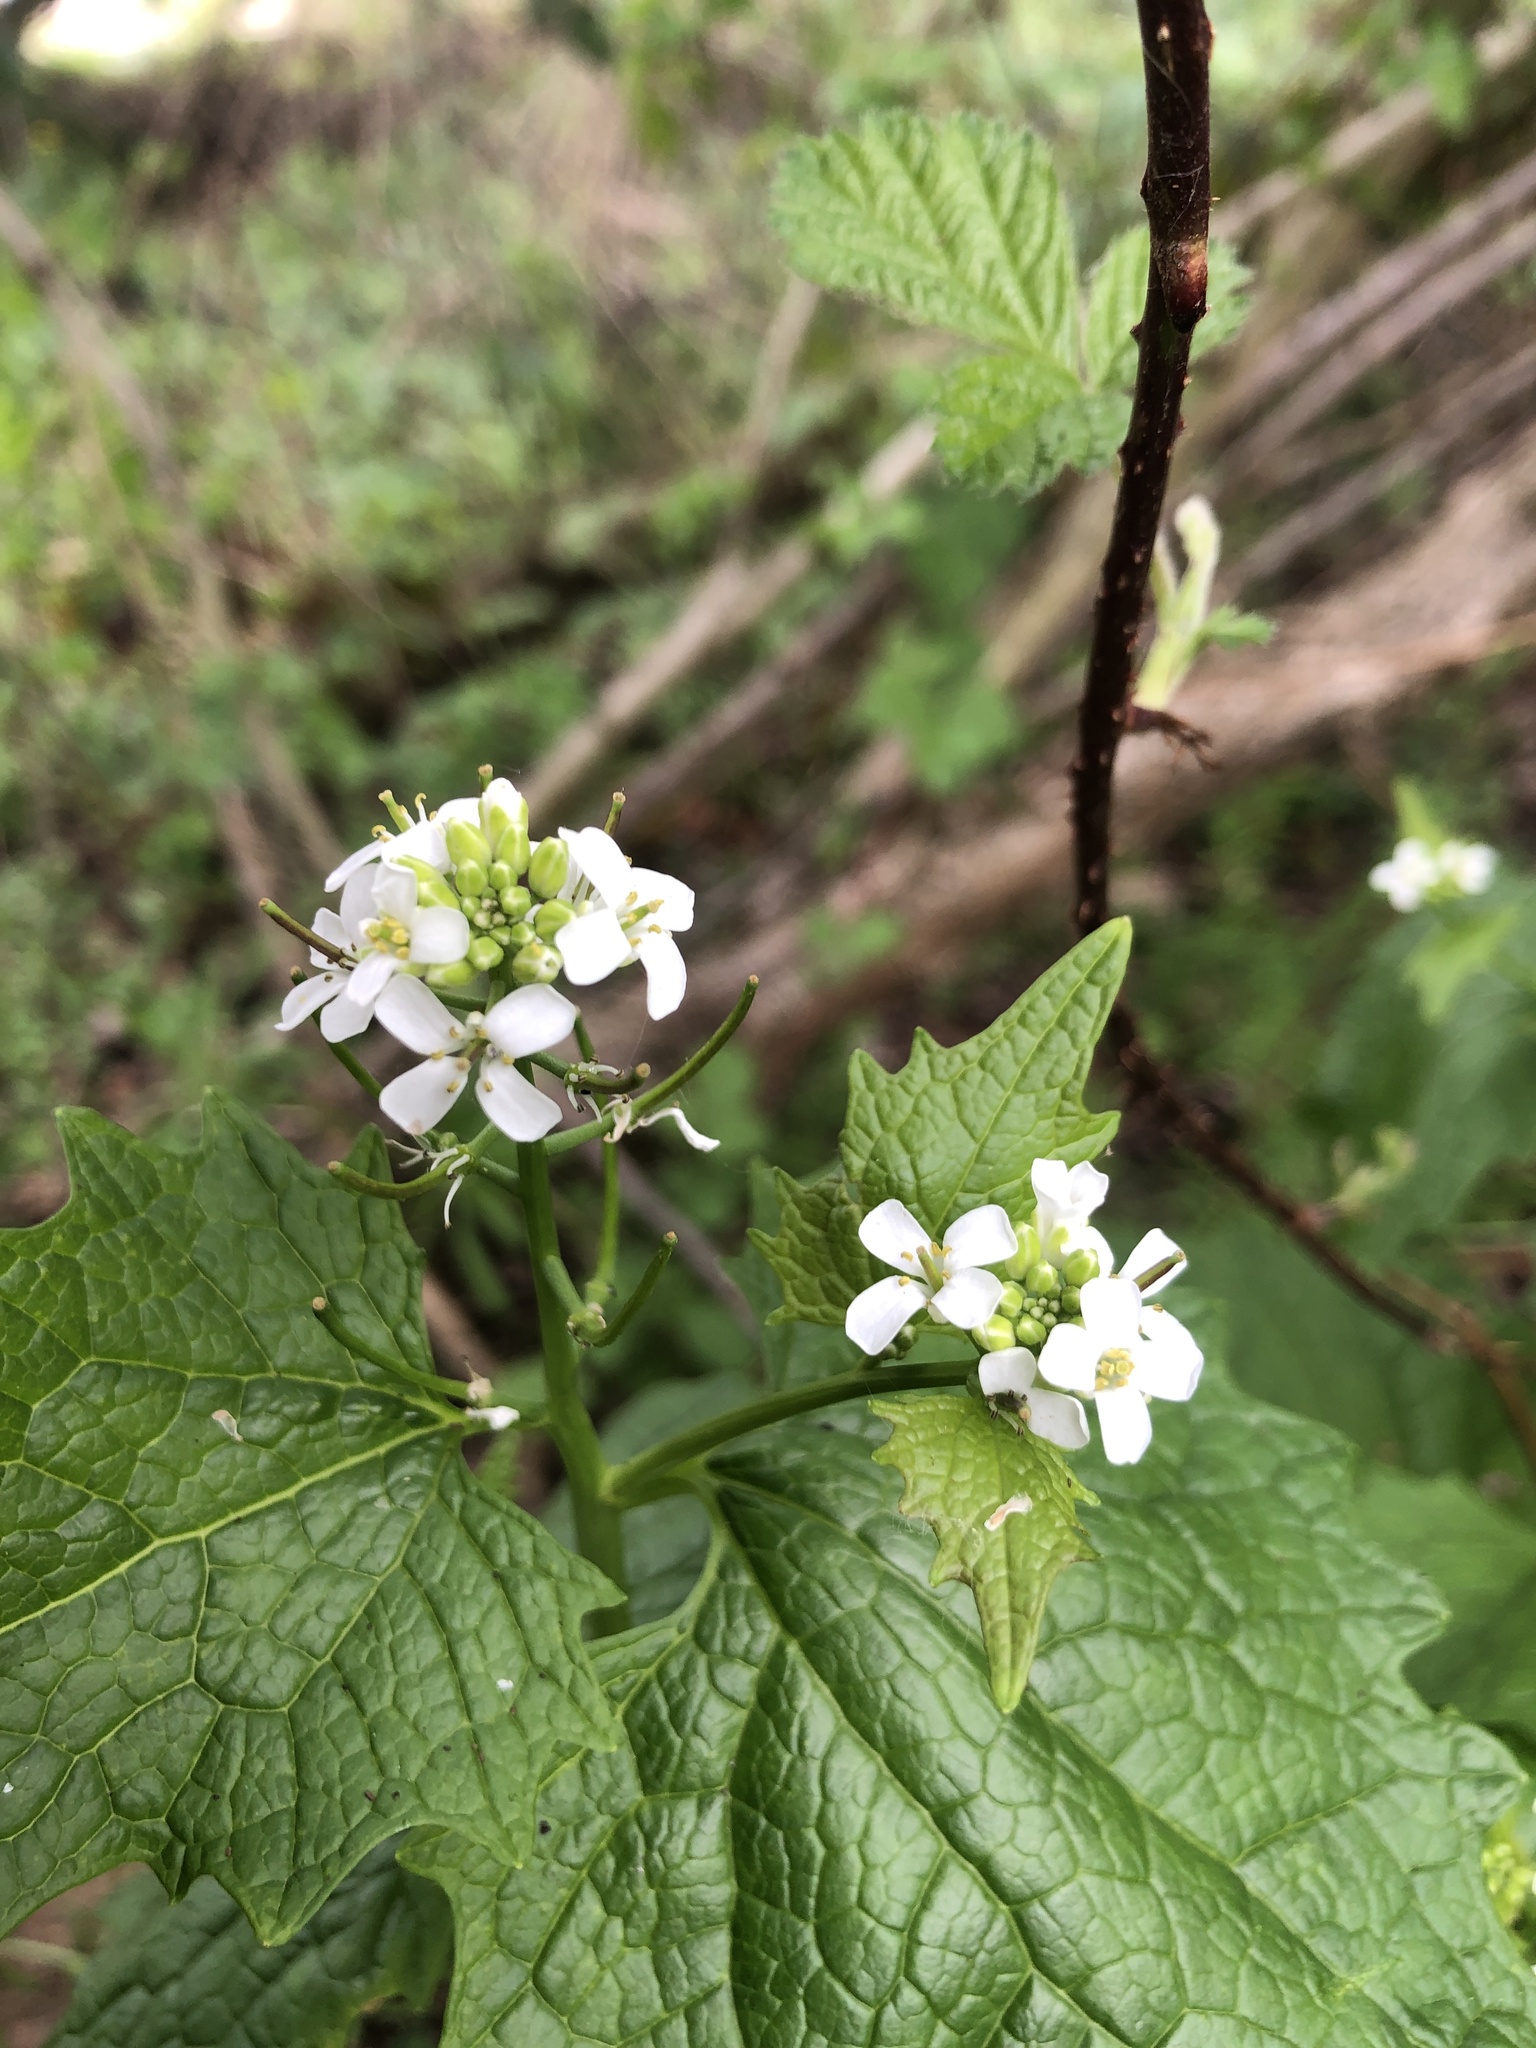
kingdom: Plantae
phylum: Tracheophyta
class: Magnoliopsida
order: Brassicales
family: Brassicaceae
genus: Alliaria
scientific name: Alliaria petiolata
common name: Garlic mustard
